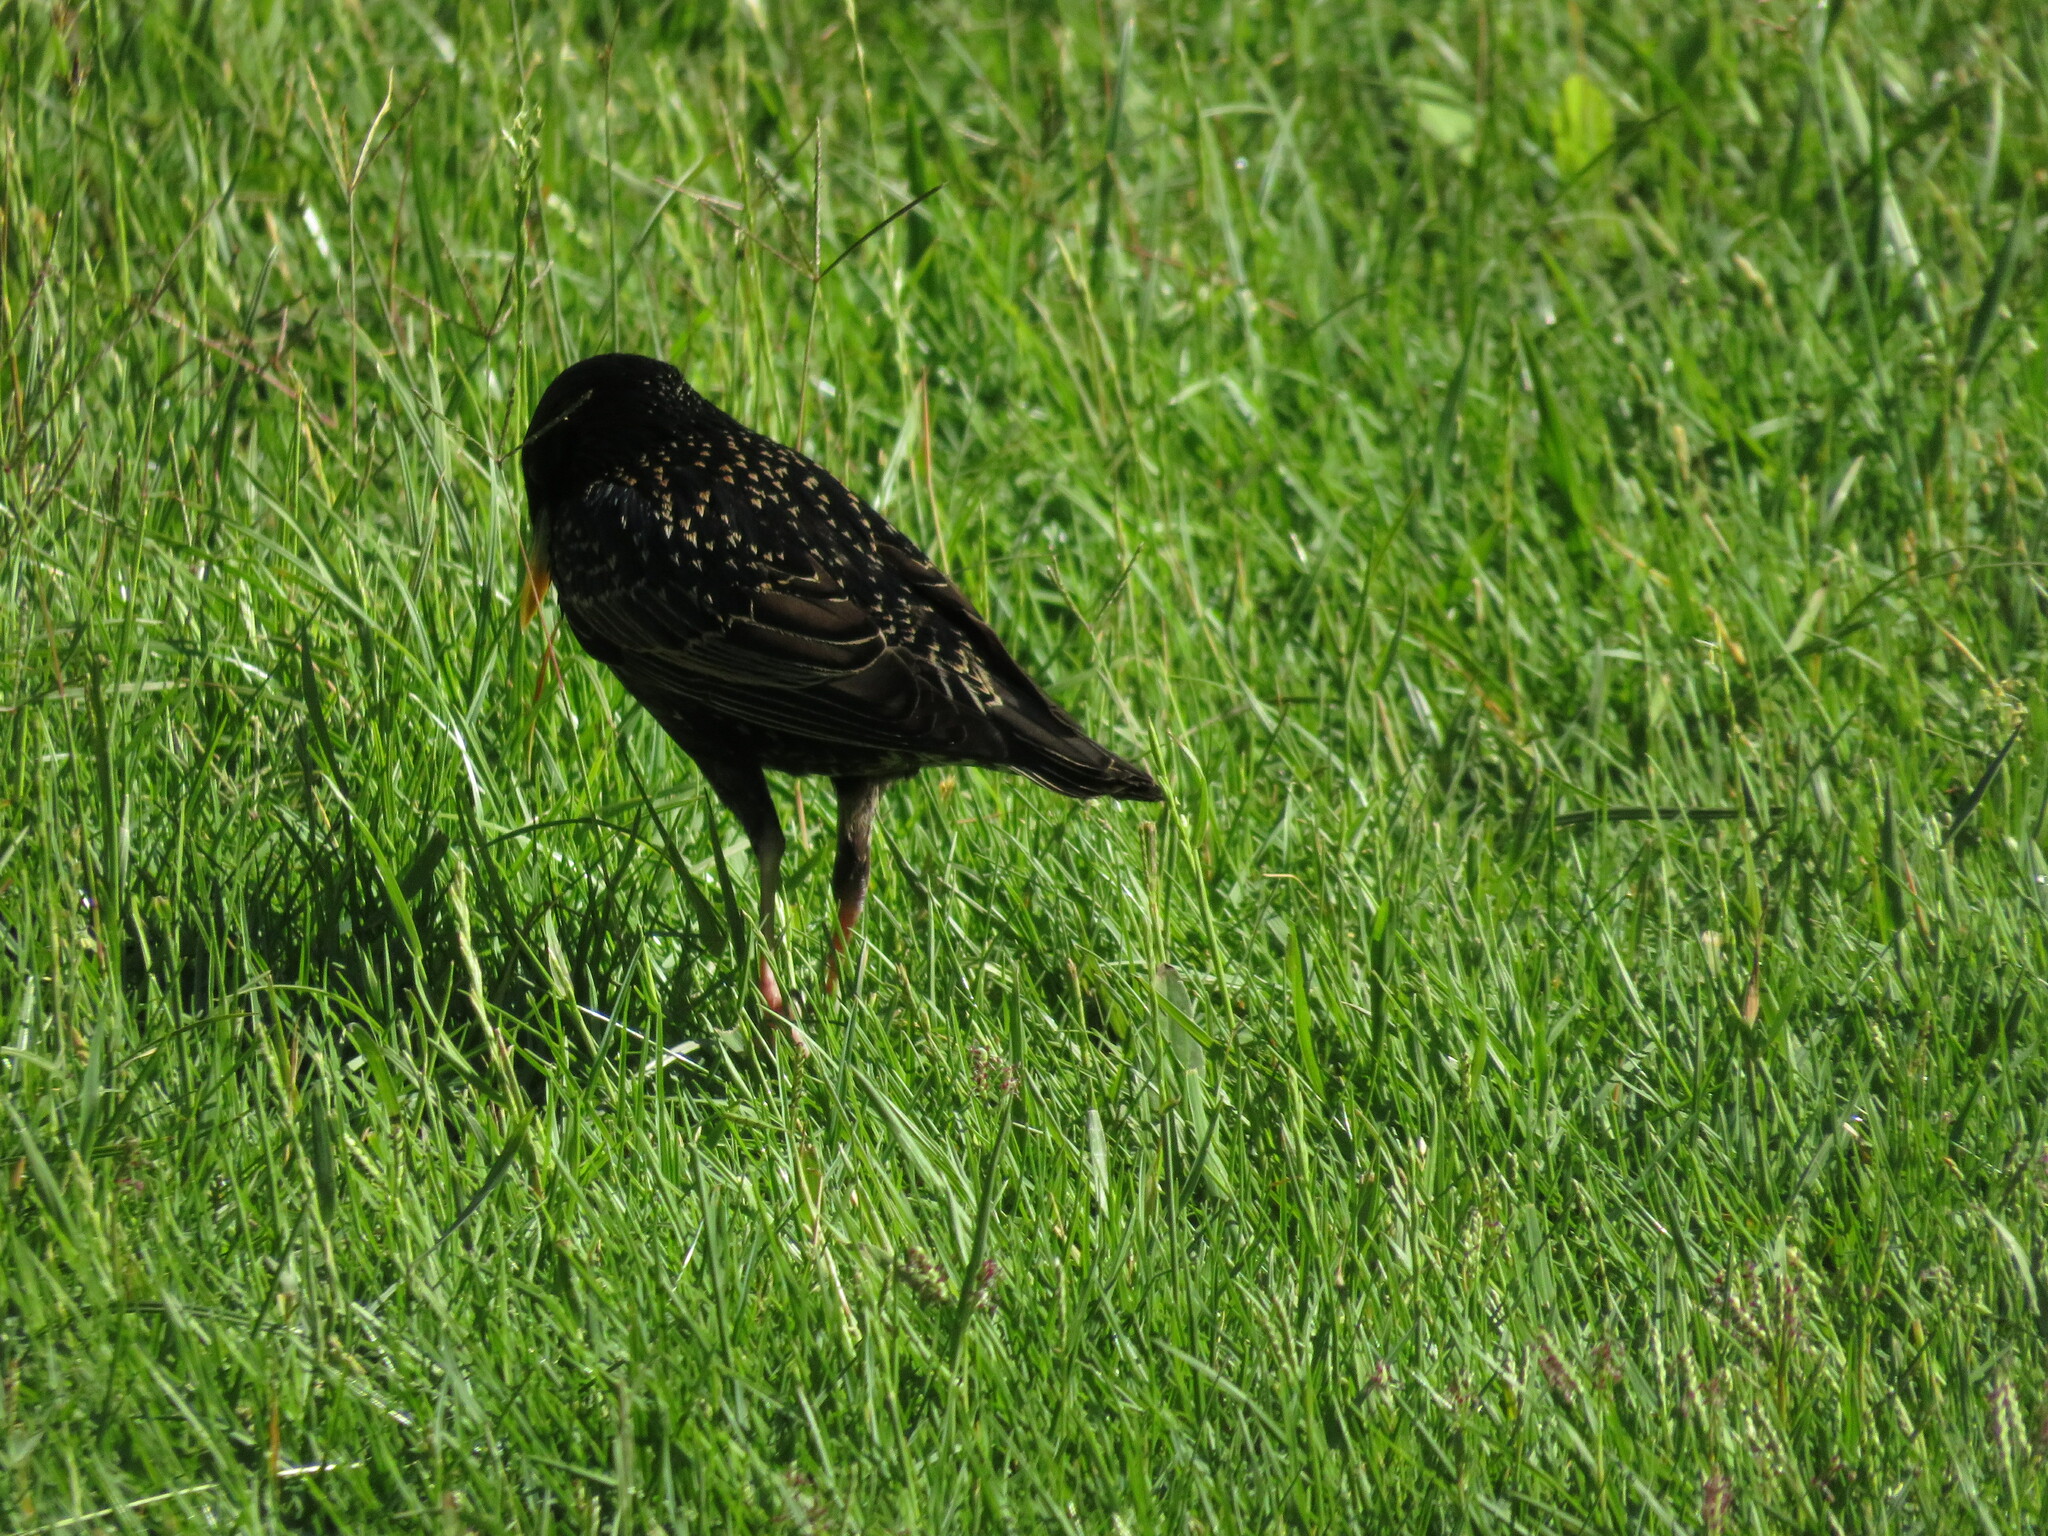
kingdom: Animalia
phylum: Chordata
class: Aves
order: Passeriformes
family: Sturnidae
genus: Sturnus
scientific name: Sturnus vulgaris
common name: Common starling
